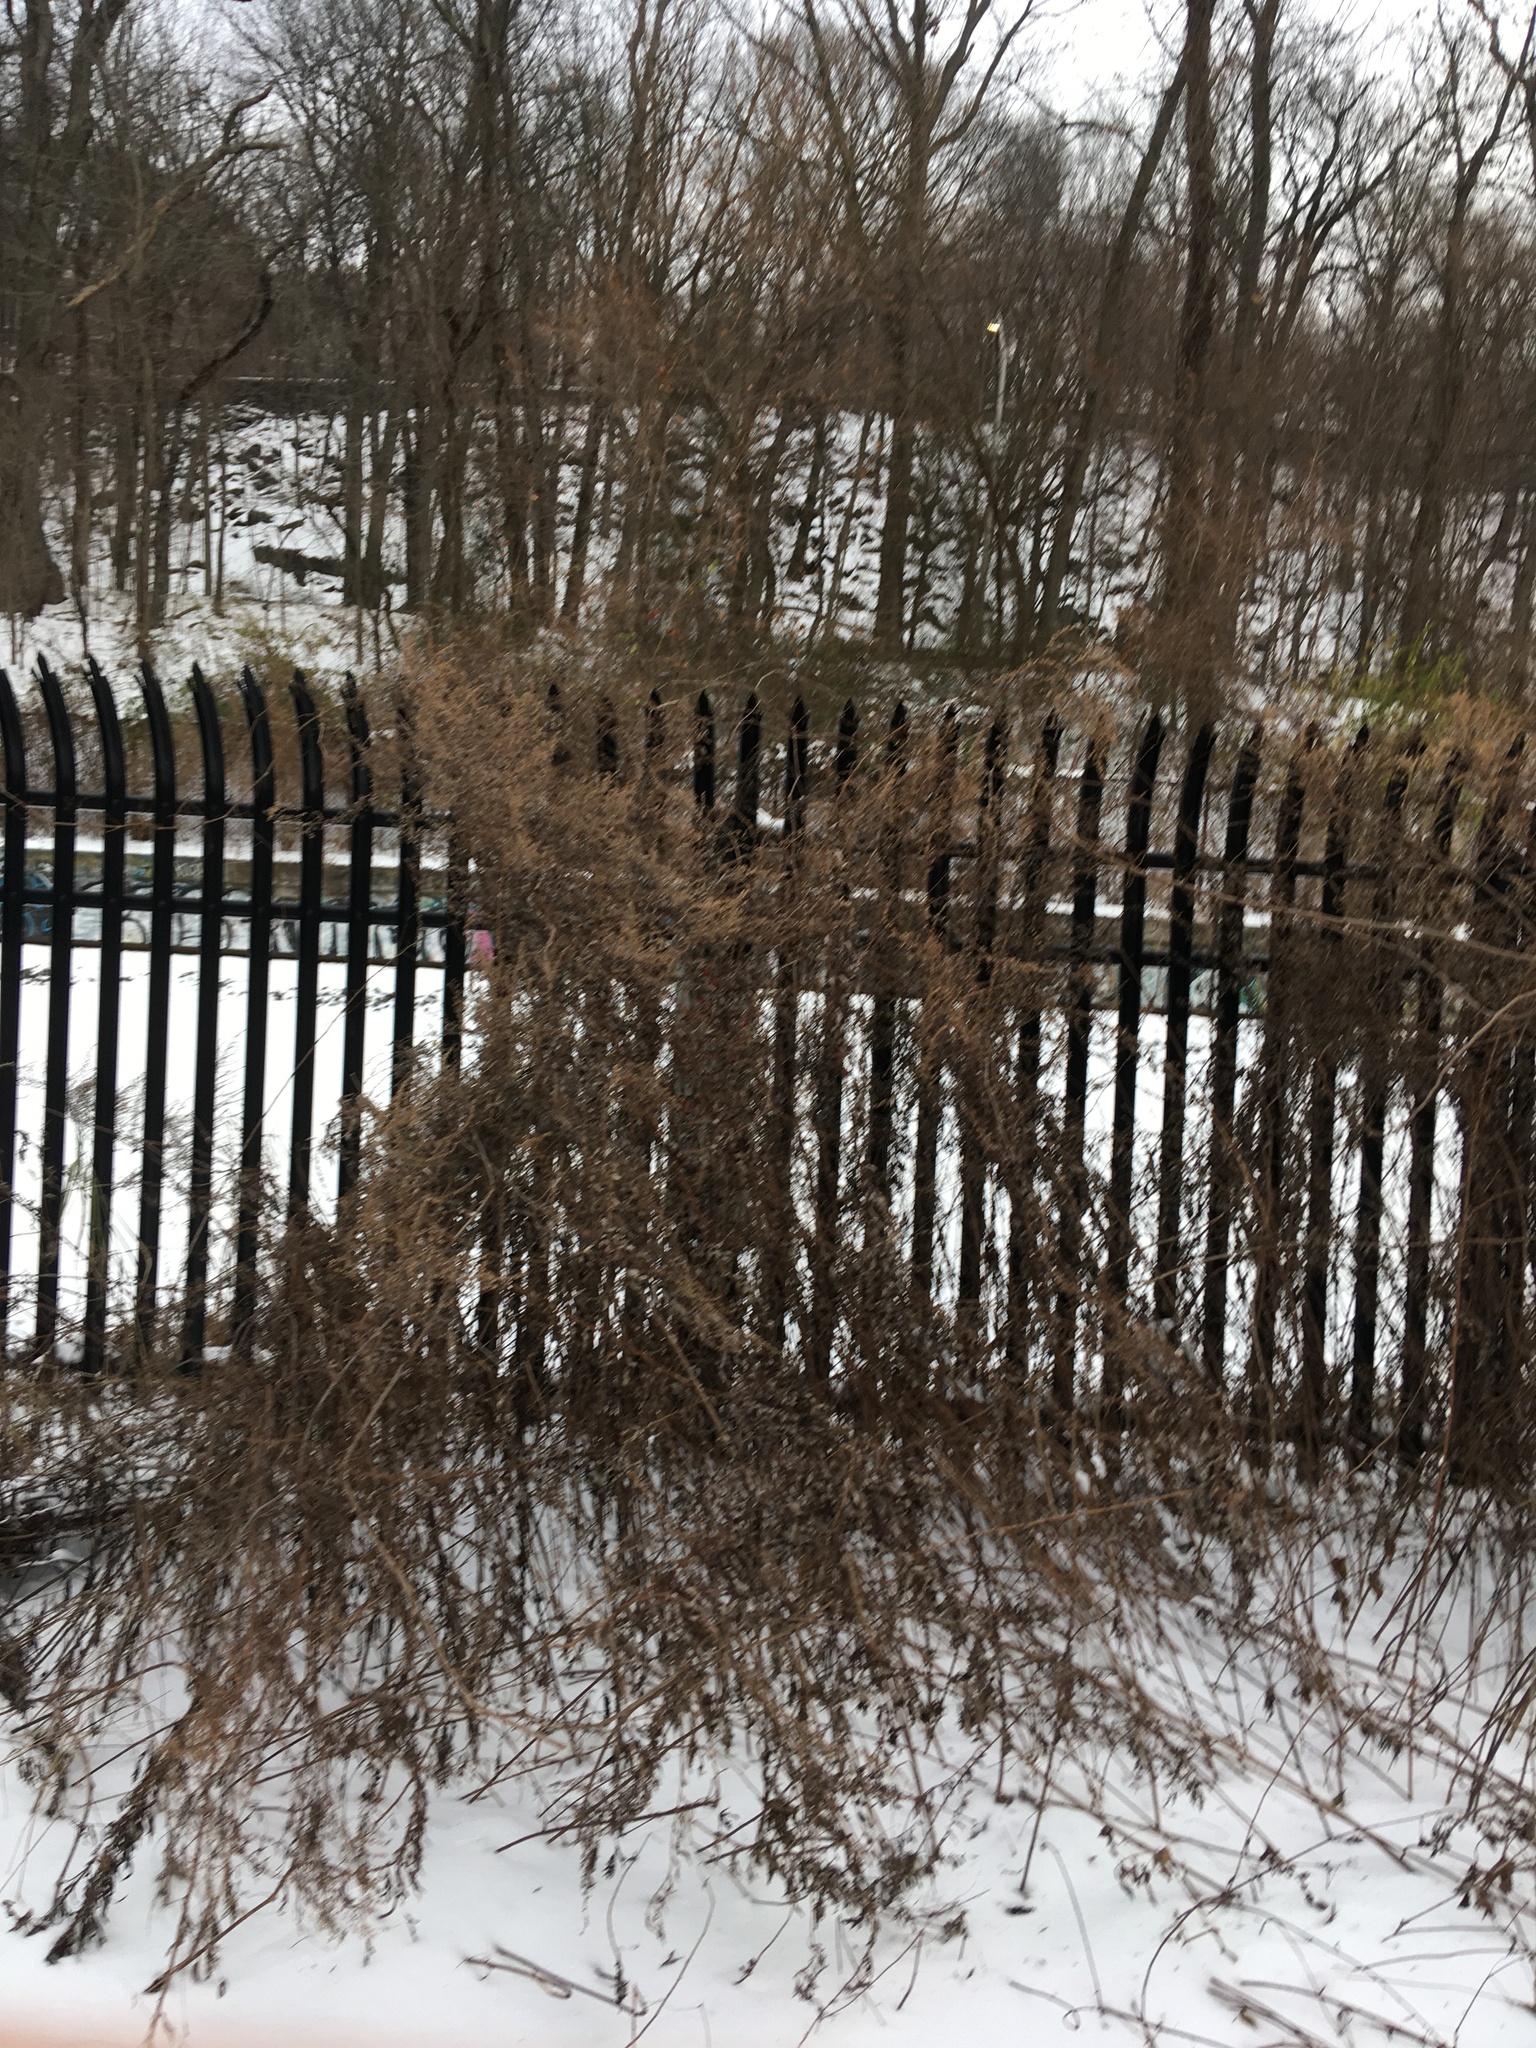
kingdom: Plantae
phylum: Tracheophyta
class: Magnoliopsida
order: Asterales
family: Asteraceae
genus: Artemisia
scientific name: Artemisia vulgaris
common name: Mugwort
